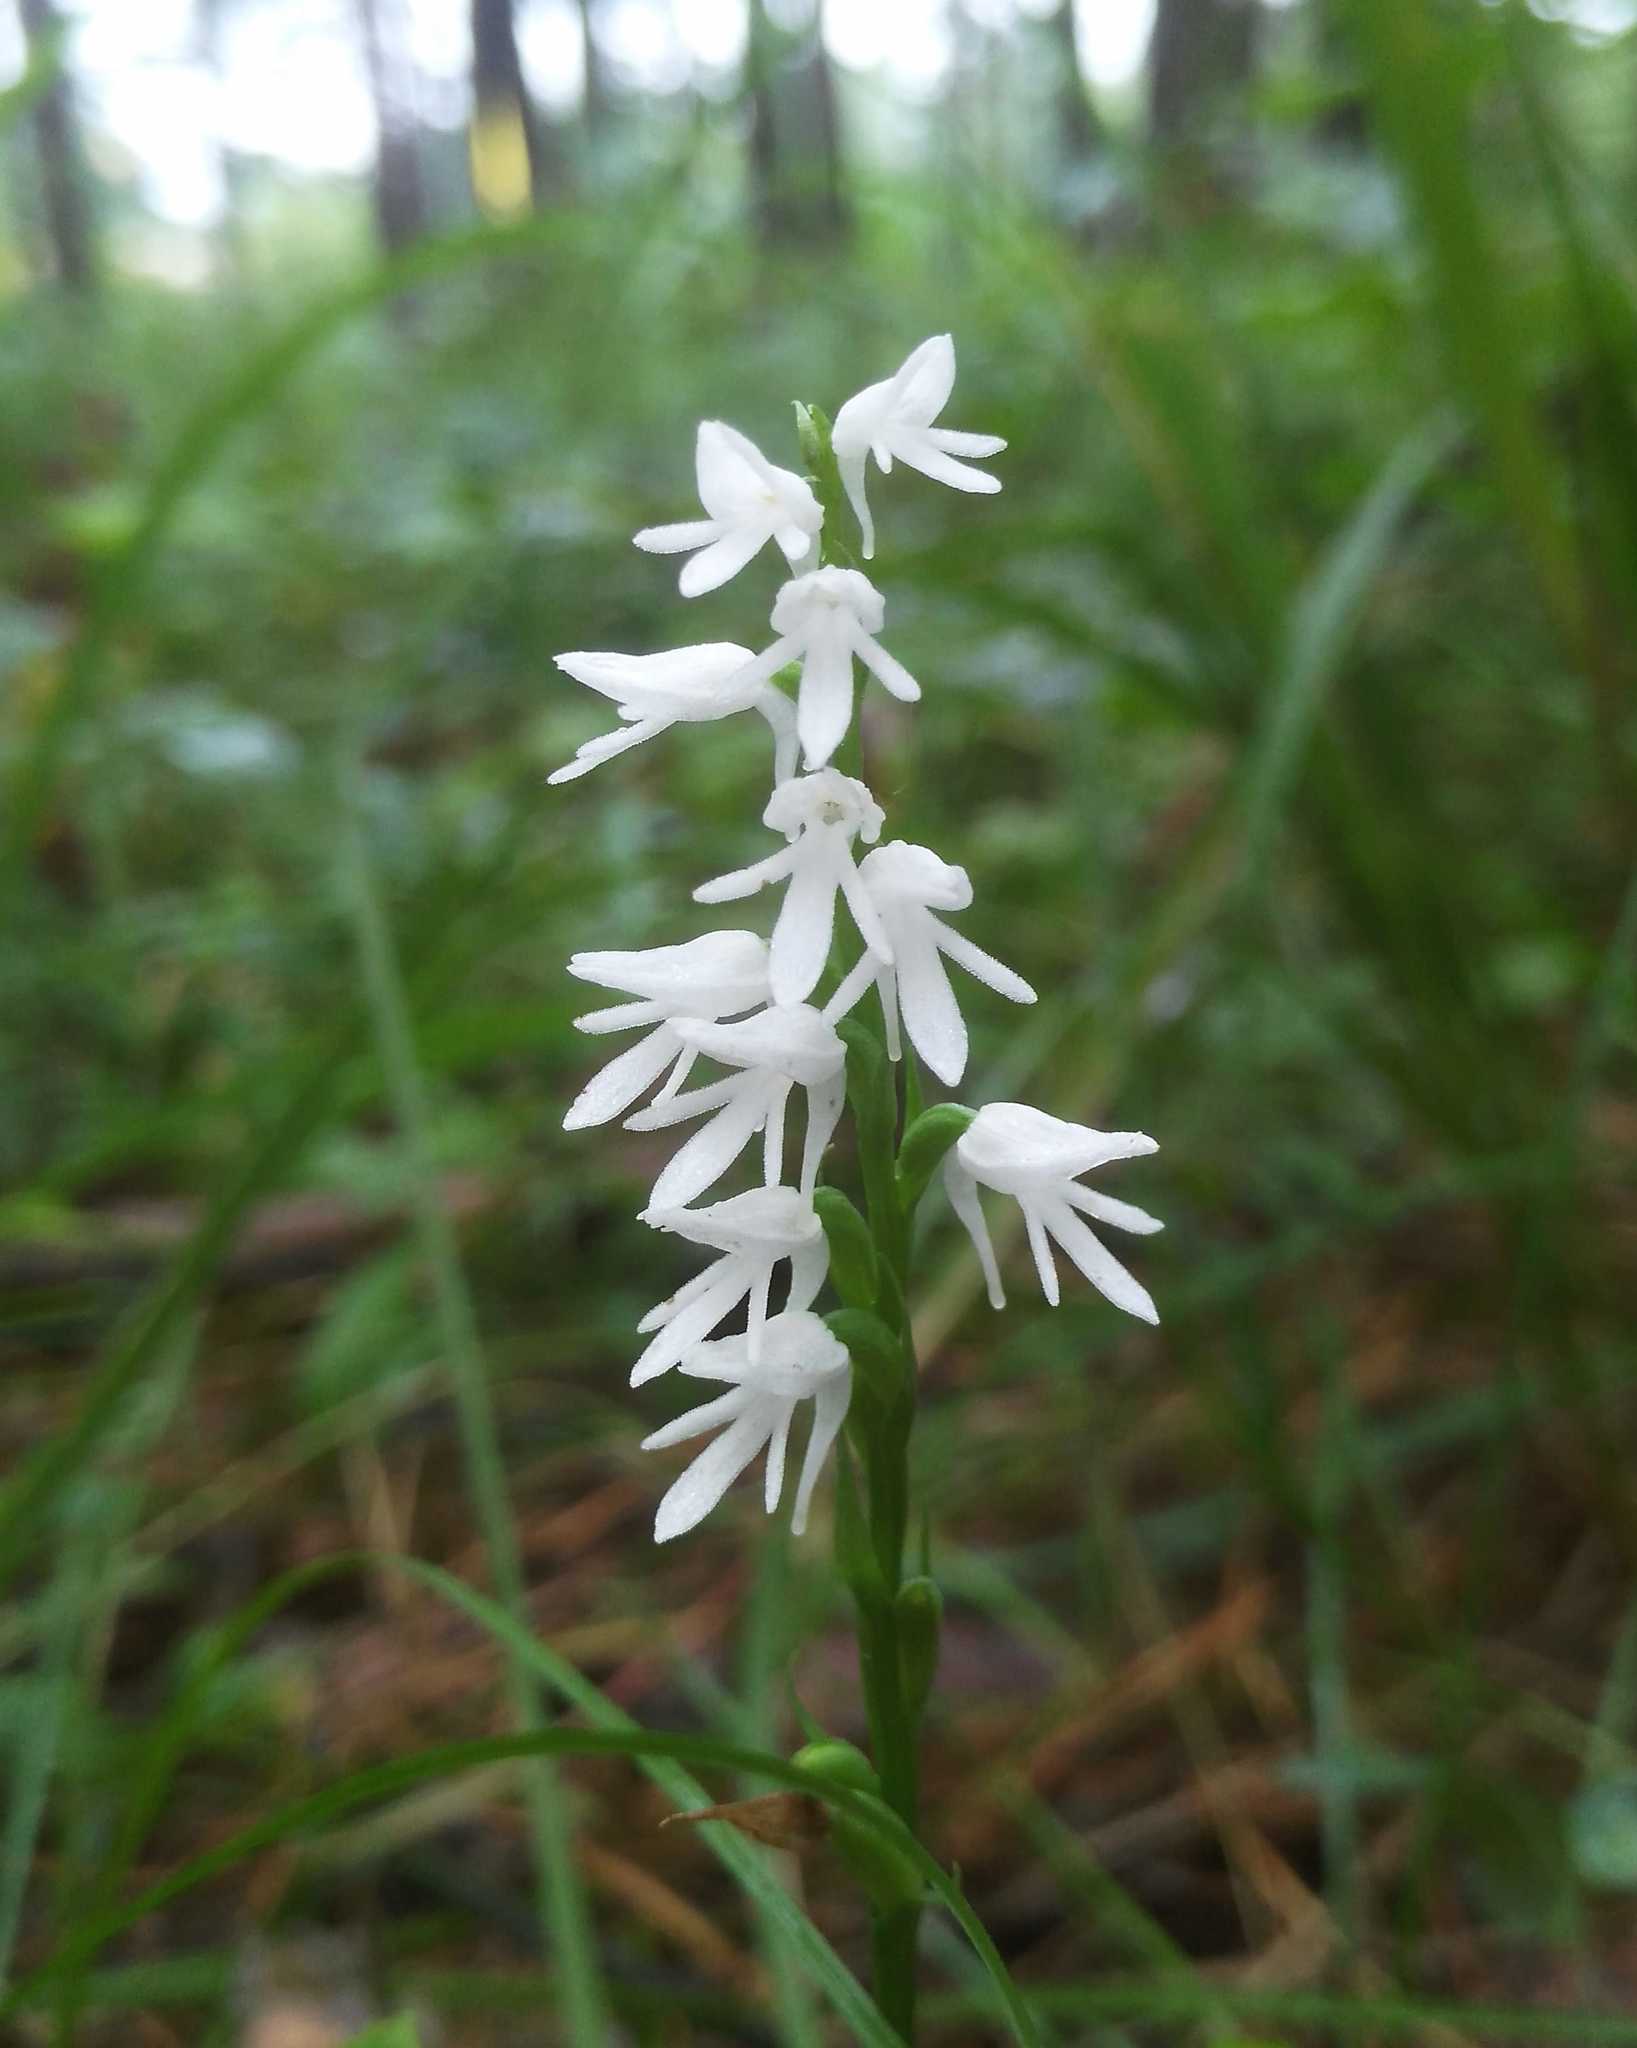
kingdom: Plantae
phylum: Tracheophyta
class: Liliopsida
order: Asparagales
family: Orchidaceae
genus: Hemipilia
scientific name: Hemipilia cucullata
